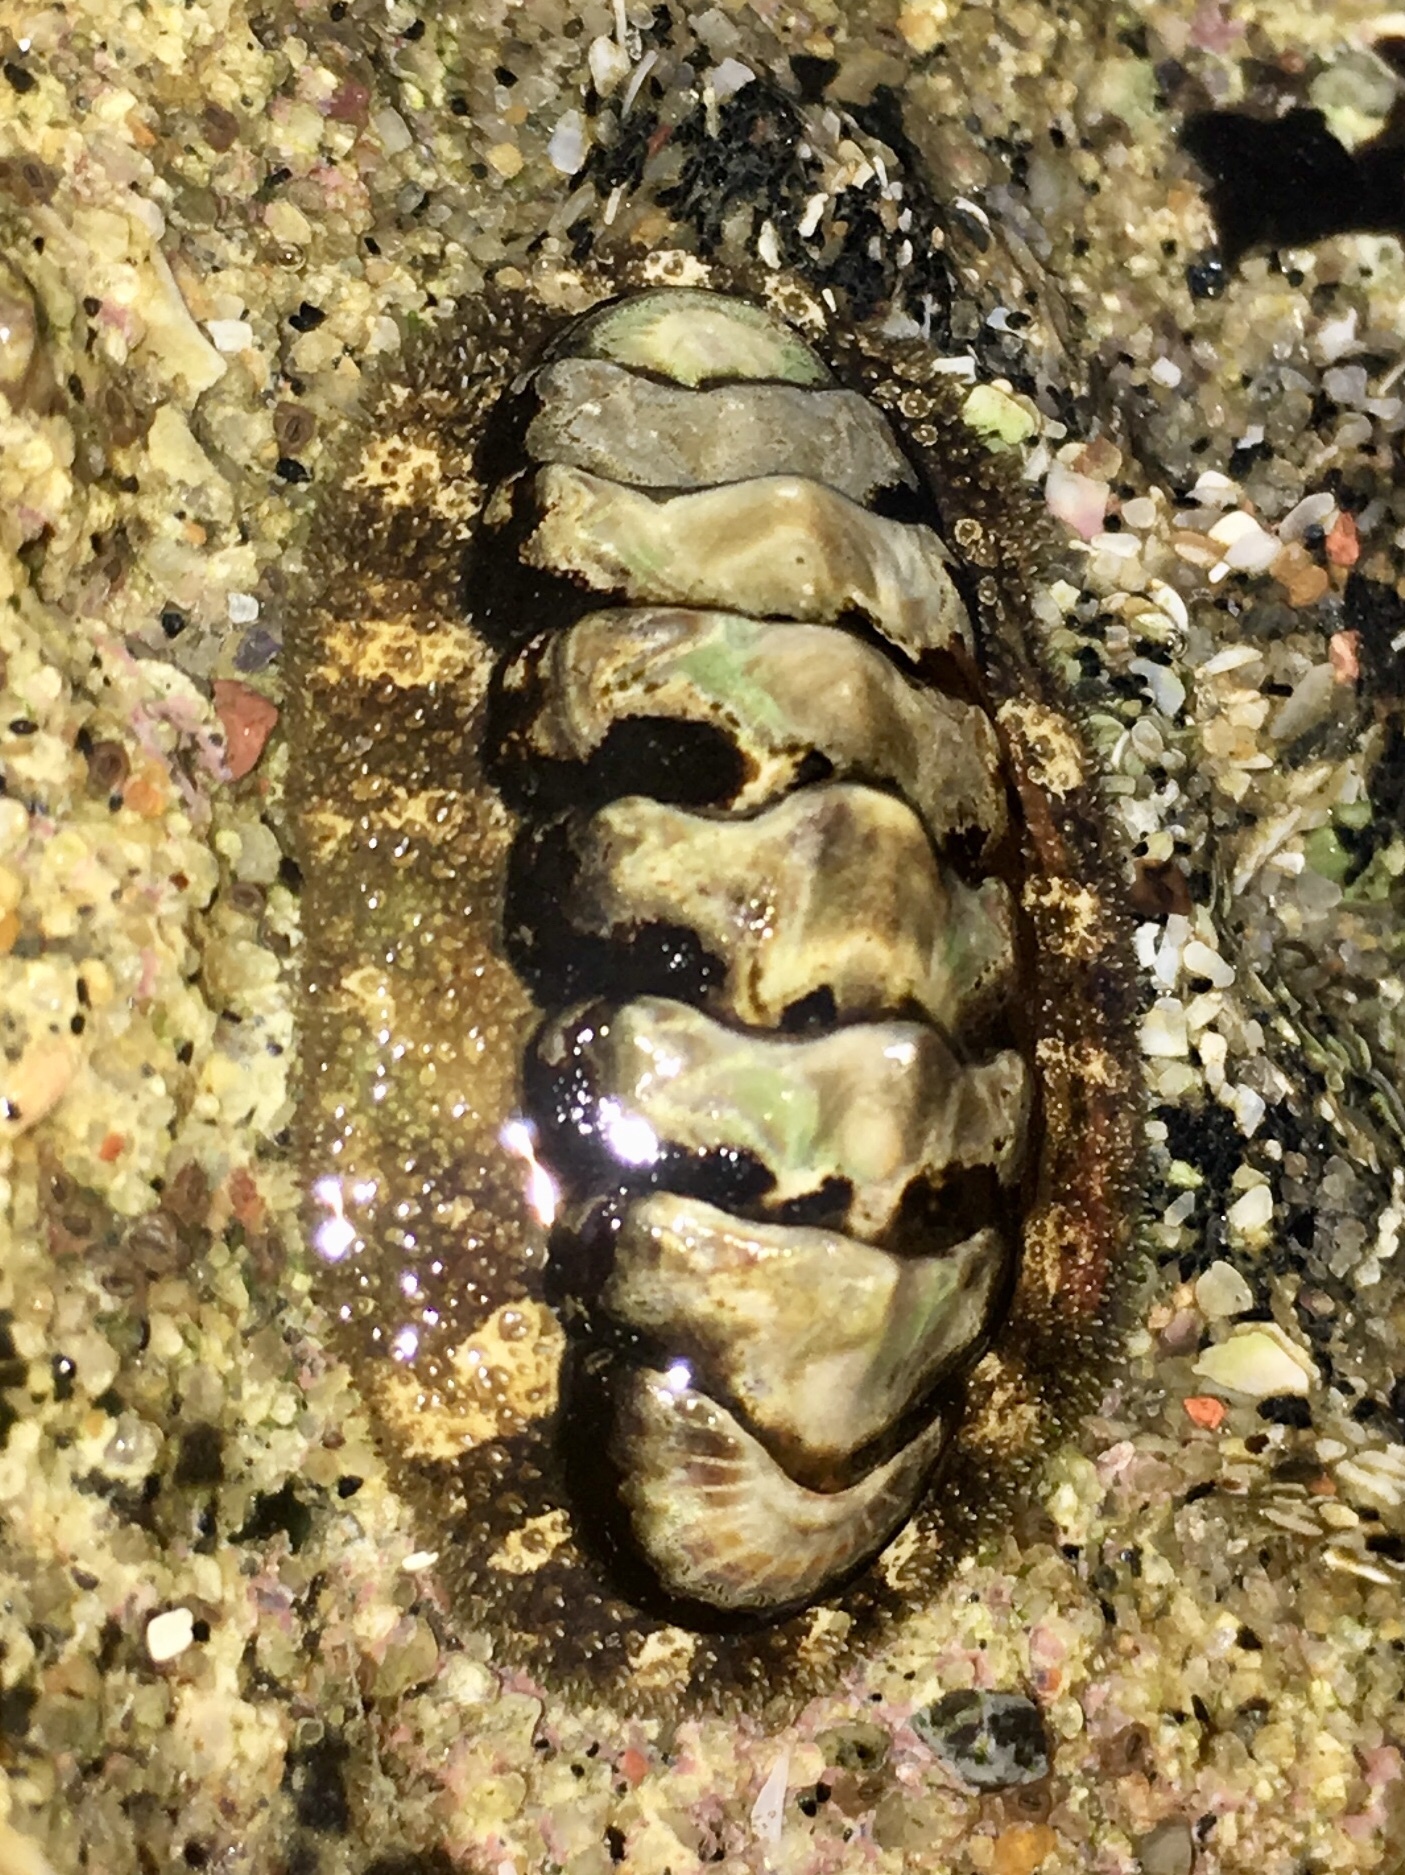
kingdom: Animalia
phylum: Mollusca
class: Polyplacophora
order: Chitonida
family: Tonicellidae
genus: Nuttallina
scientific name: Nuttallina californica
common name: California nuttall chiton
